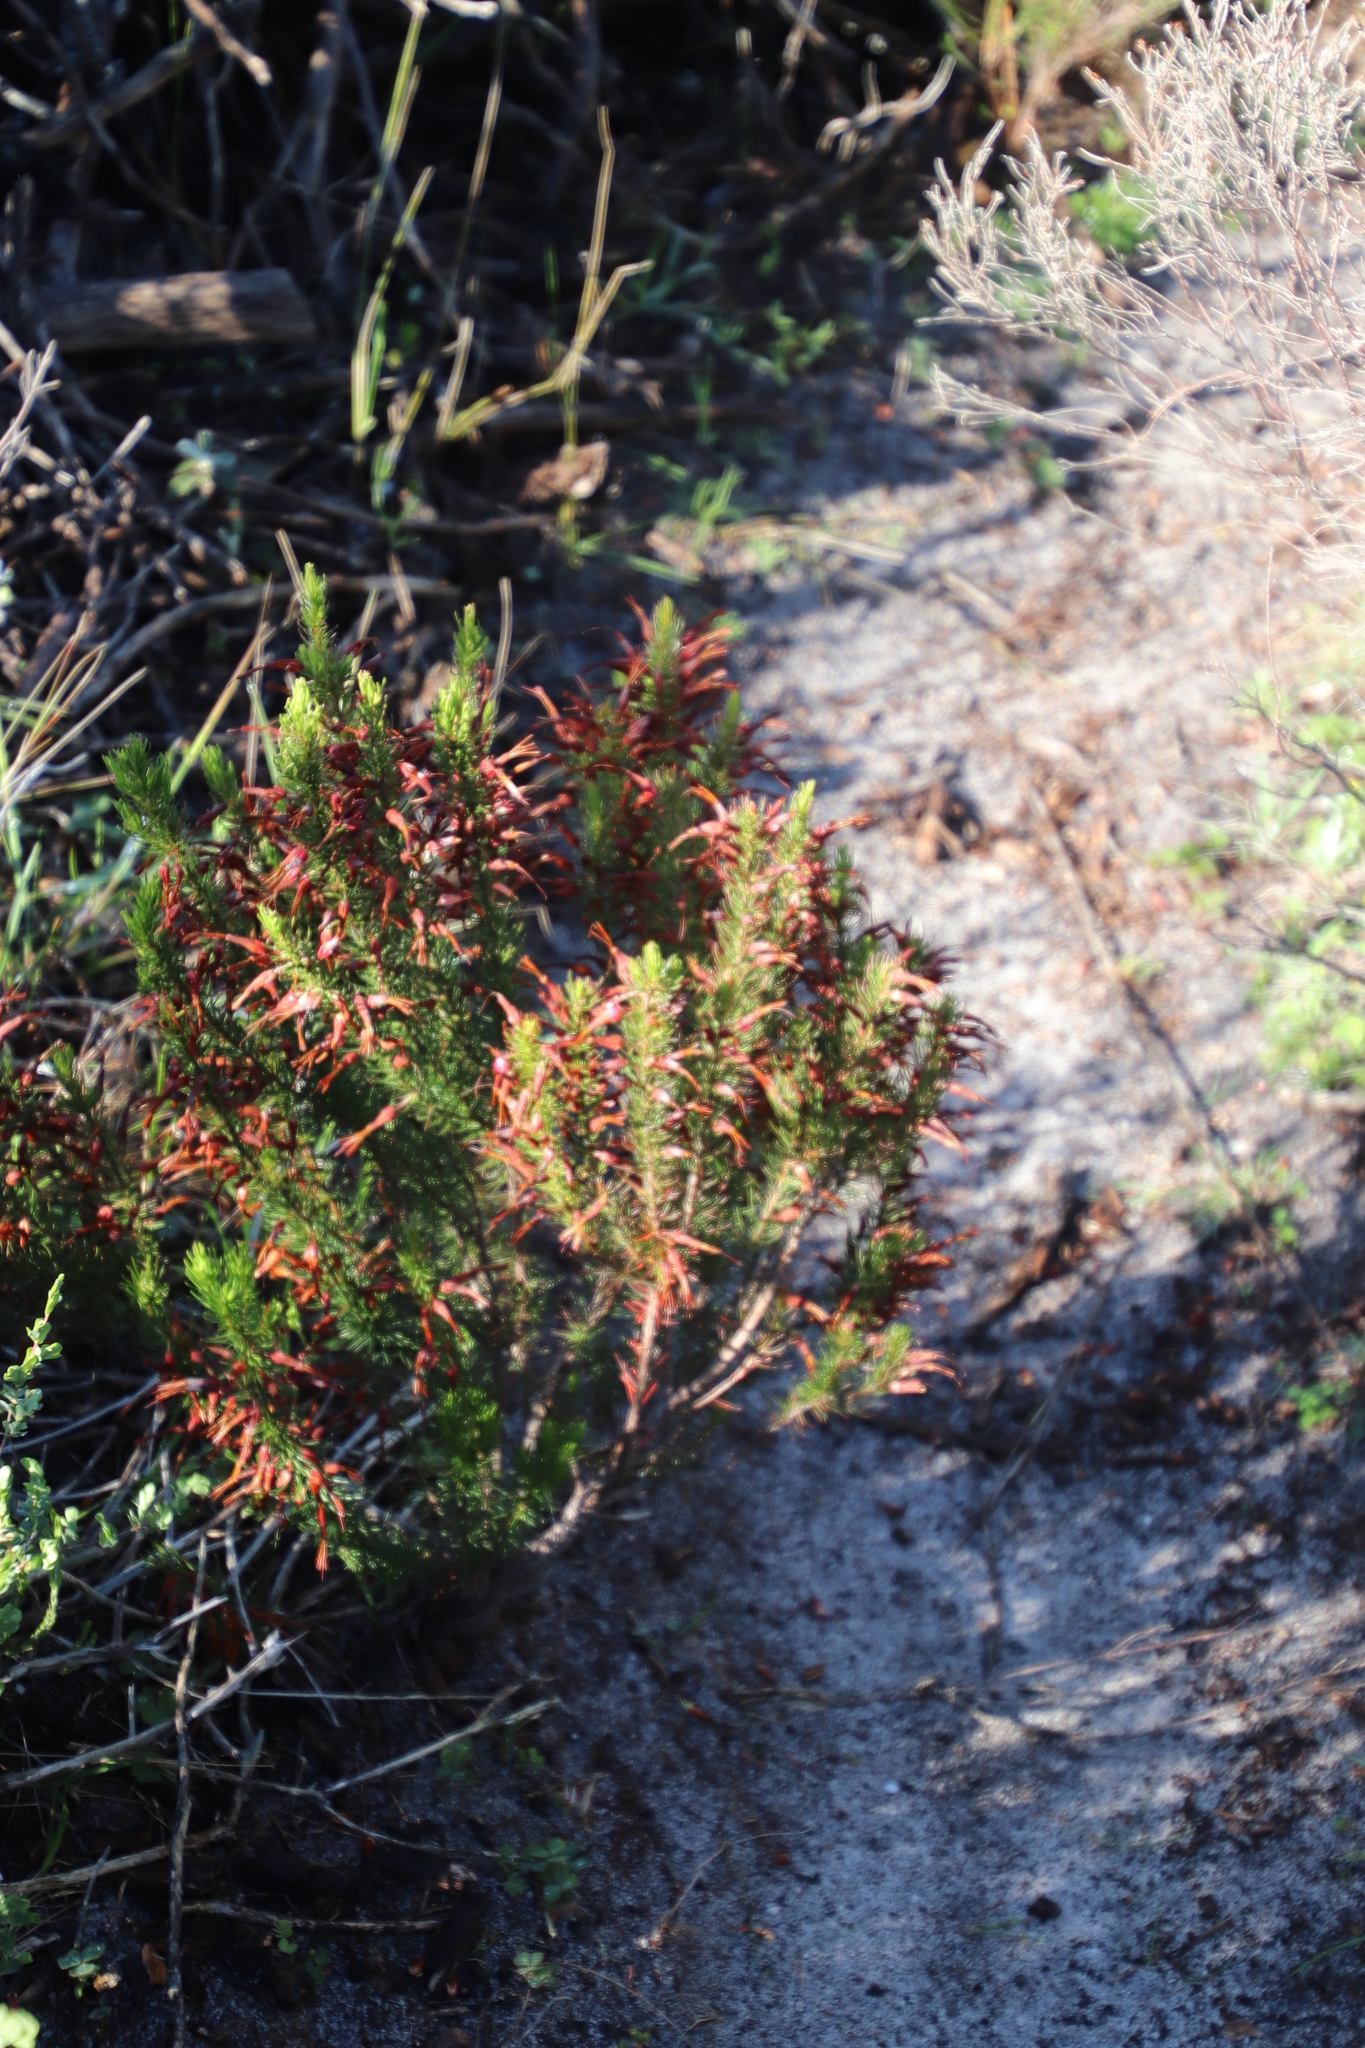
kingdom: Plantae
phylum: Tracheophyta
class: Magnoliopsida
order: Ericales
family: Ericaceae
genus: Erica
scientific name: Erica plukenetii
